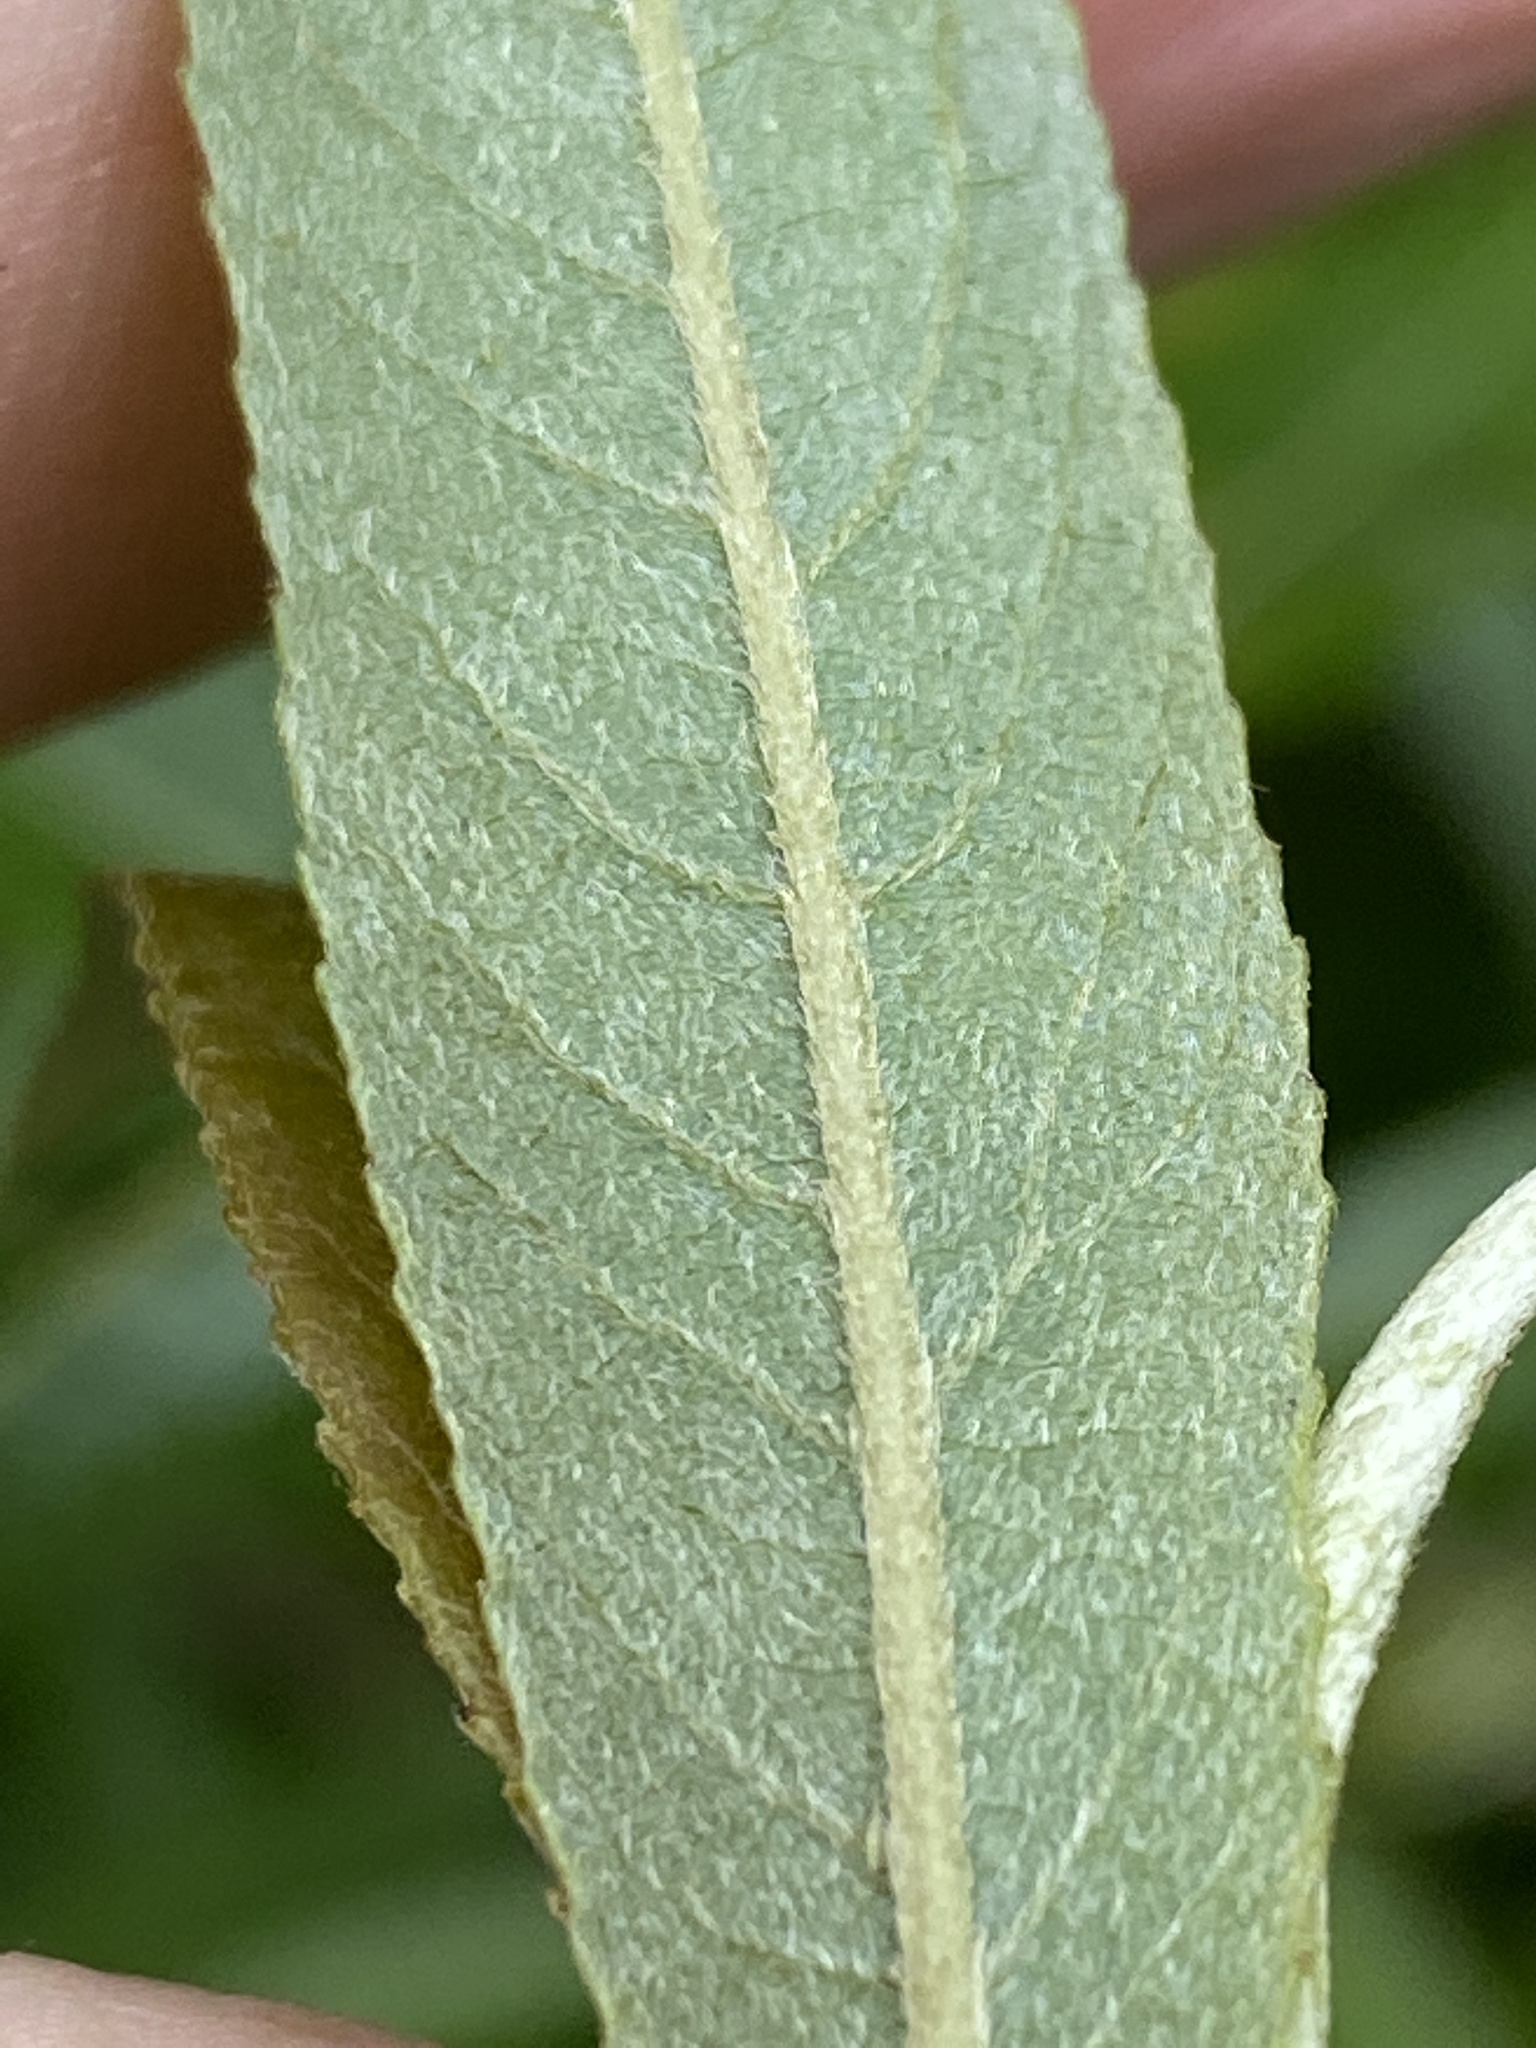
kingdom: Plantae
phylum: Tracheophyta
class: Magnoliopsida
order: Malpighiales
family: Salicaceae
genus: Salix
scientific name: Salix sericea
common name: Silky willow
